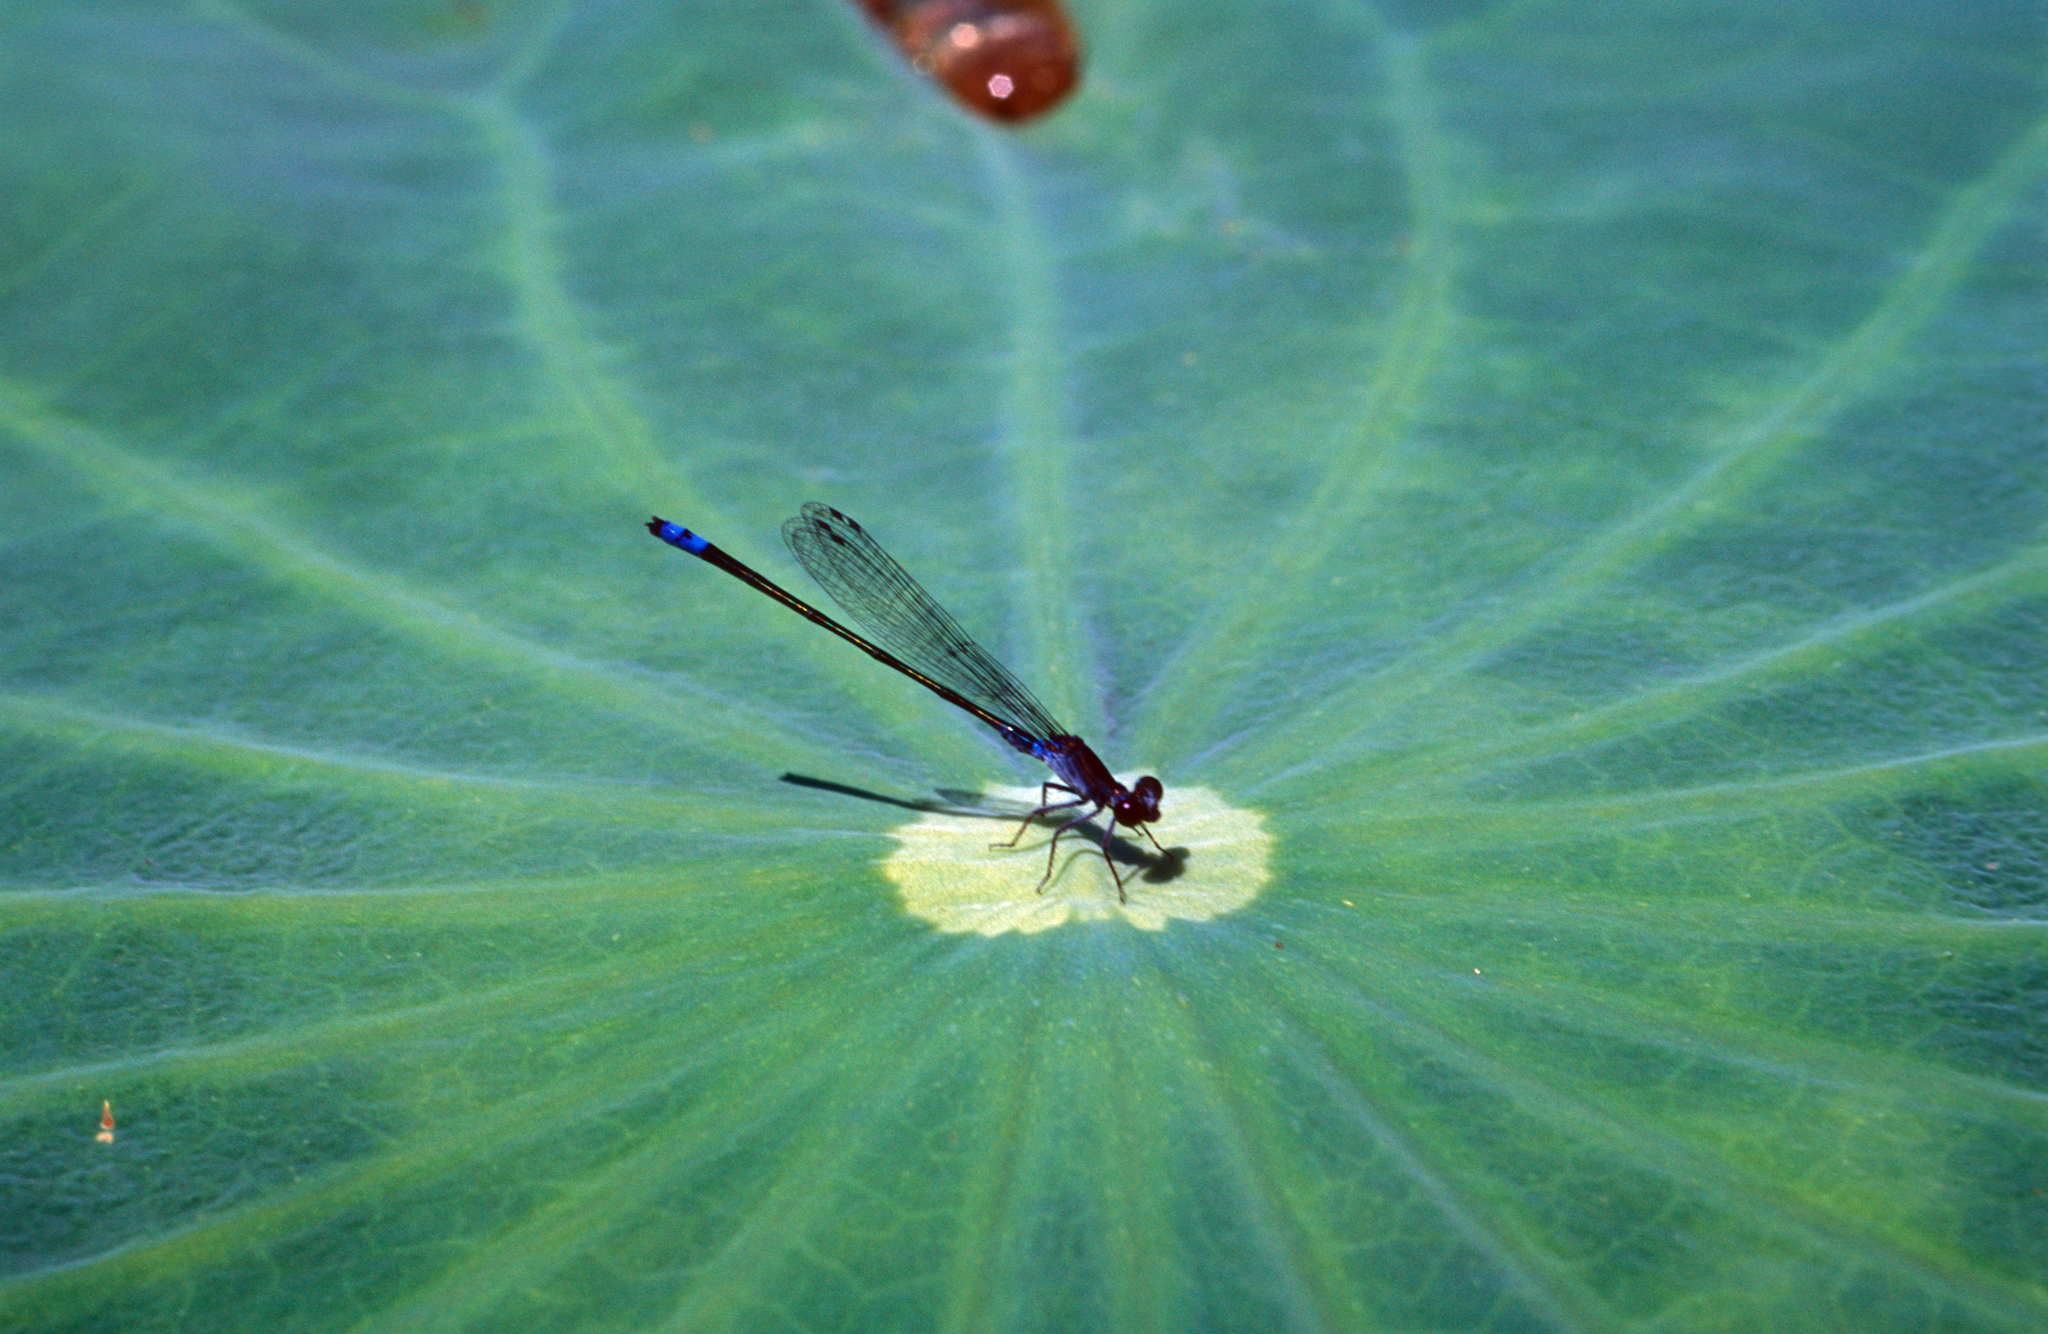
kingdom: Animalia
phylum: Arthropoda
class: Insecta
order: Odonata
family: Coenagrionidae
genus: Paracercion
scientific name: Paracercion calamorum
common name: Dusky lilysquatter
